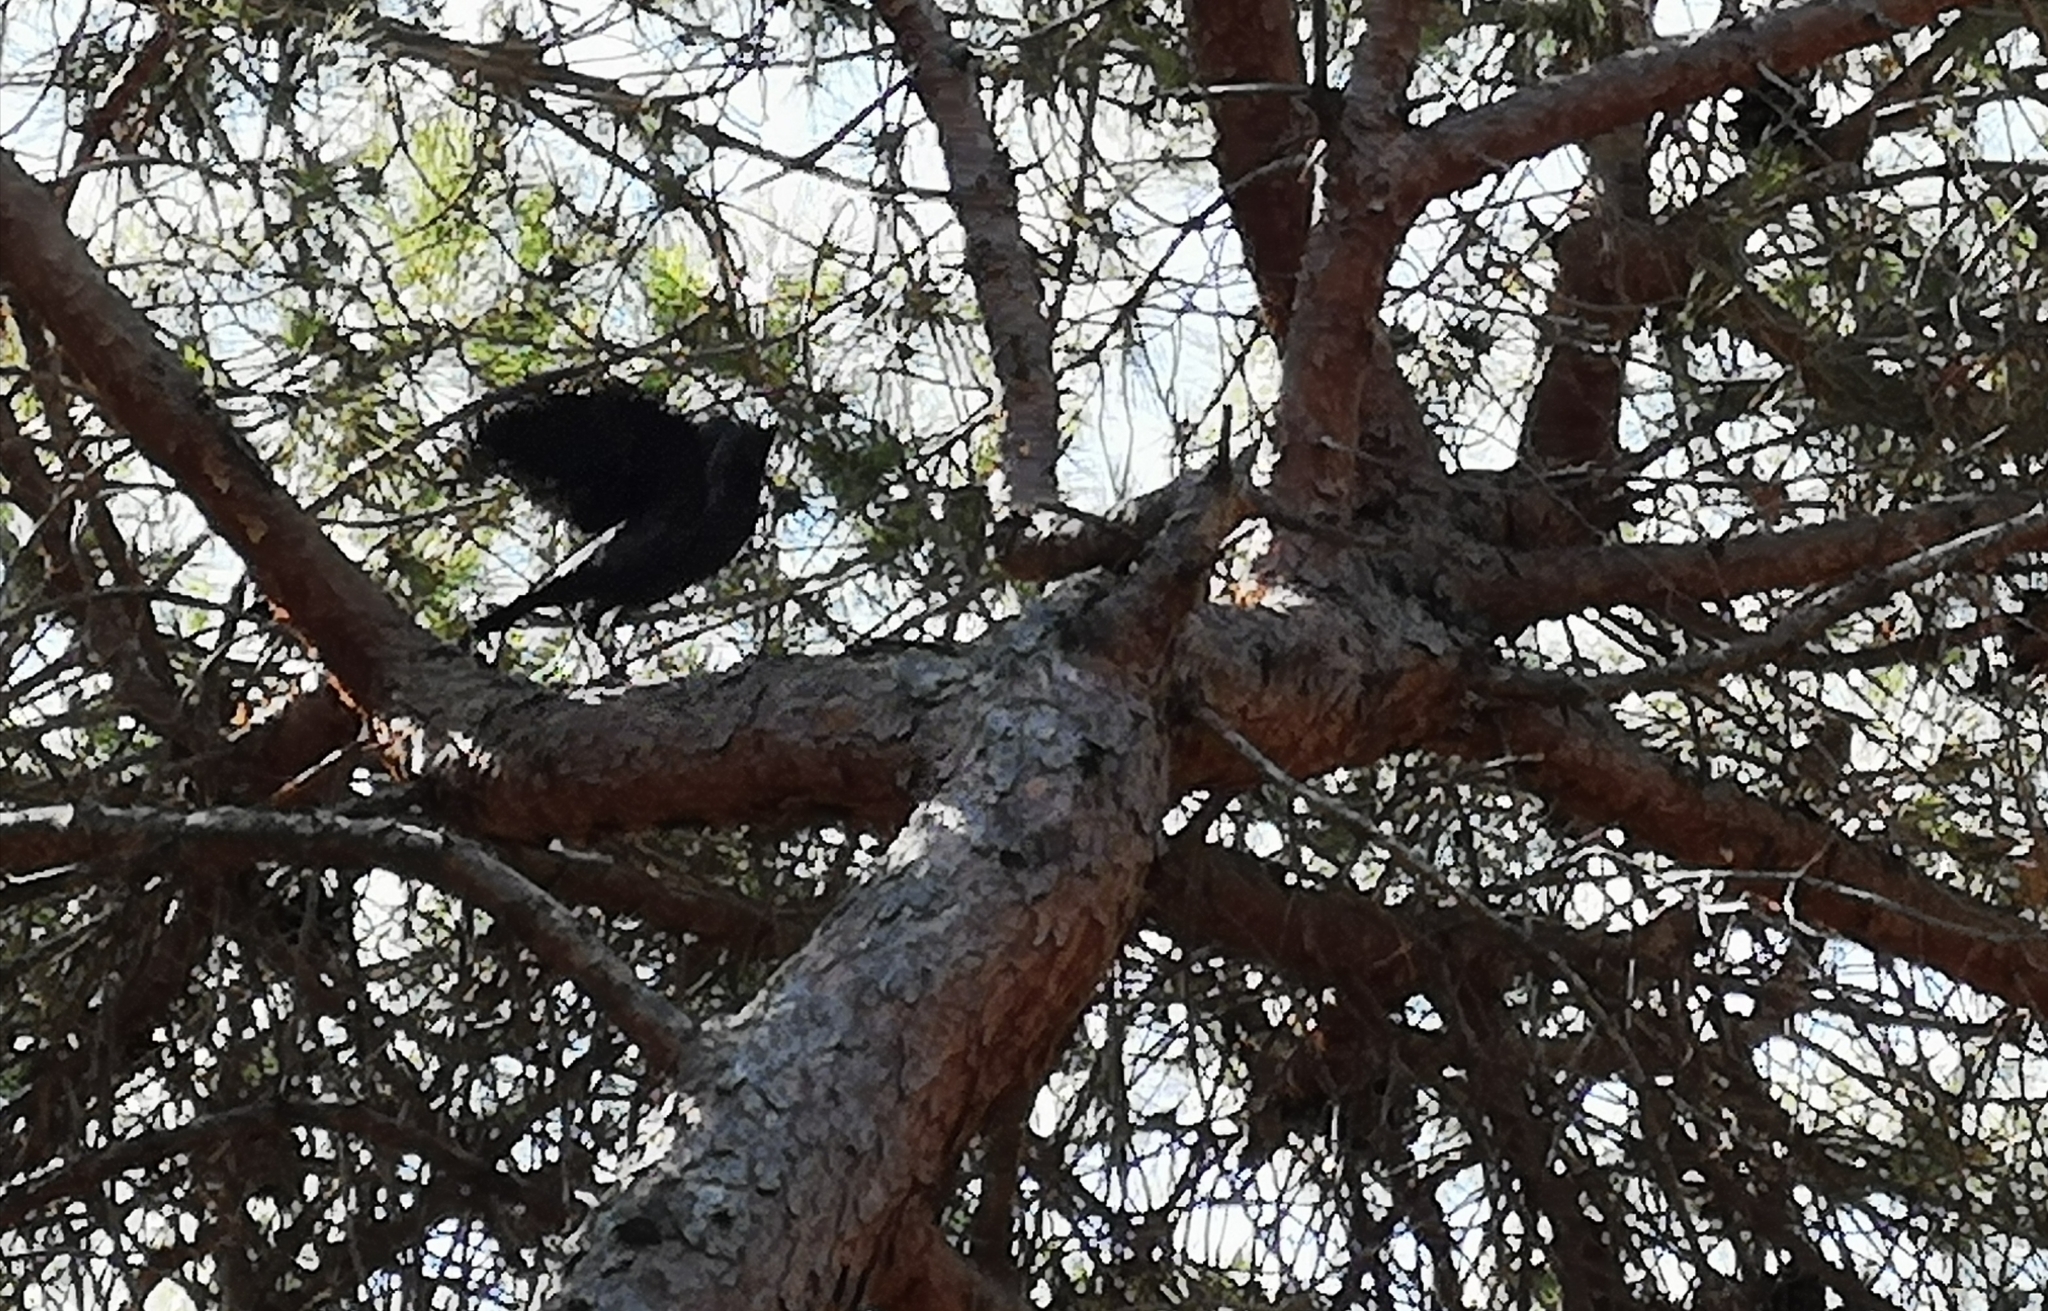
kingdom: Animalia
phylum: Chordata
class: Aves
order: Passeriformes
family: Corvidae
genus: Coloeus
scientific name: Coloeus monedula
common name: Western jackdaw
